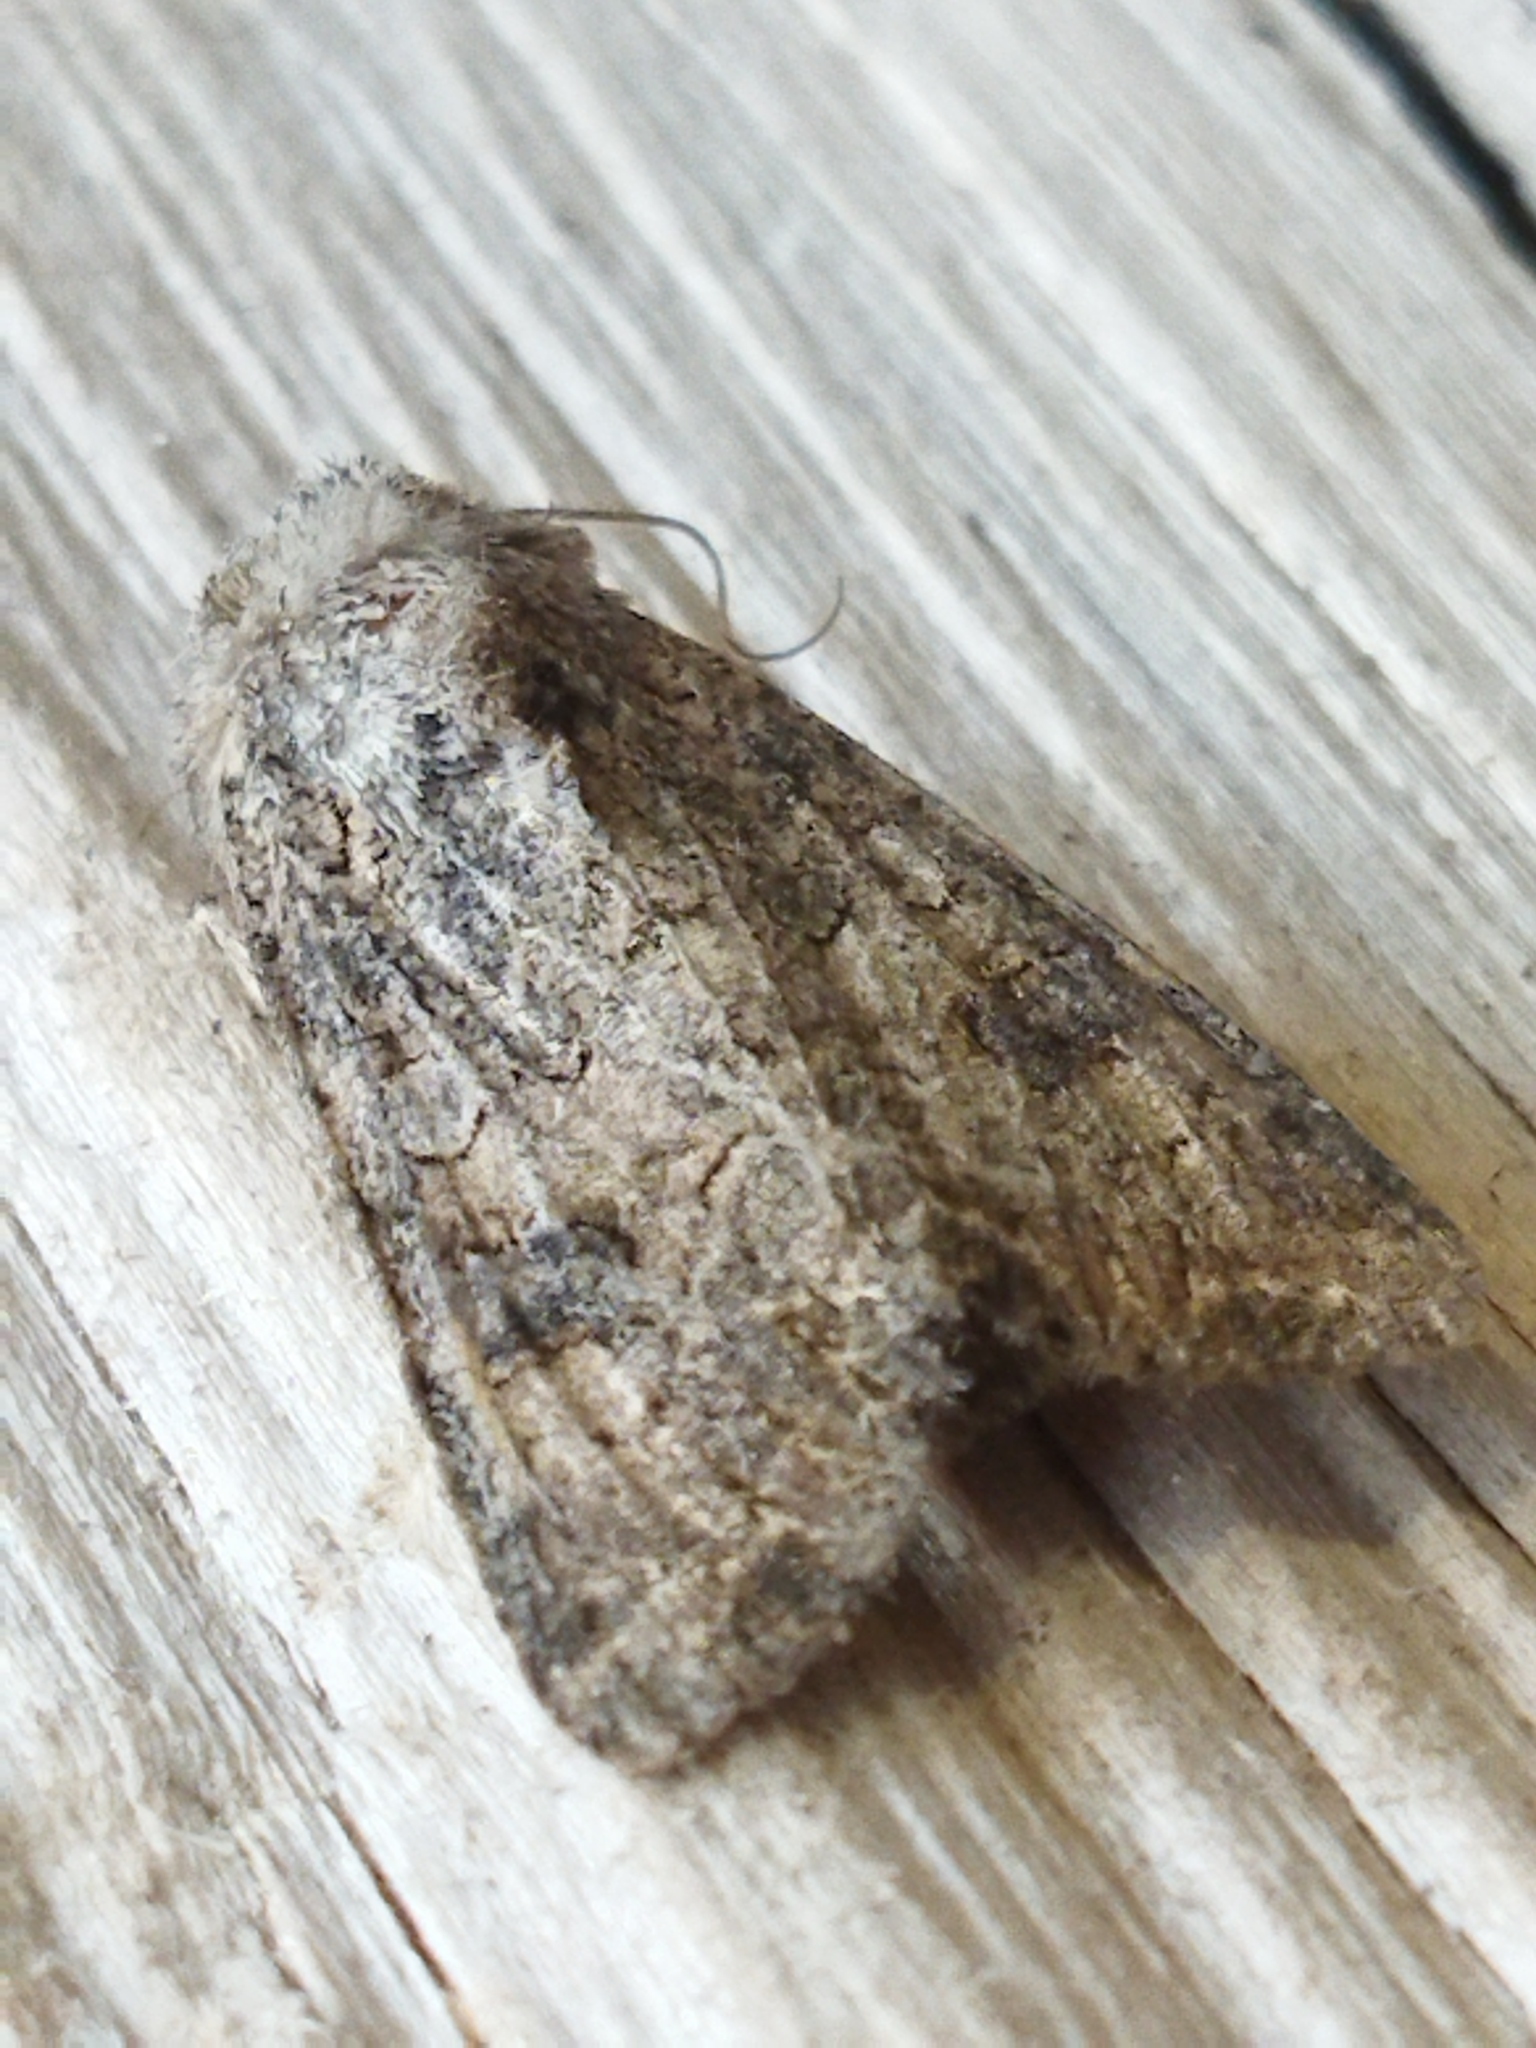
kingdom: Animalia
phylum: Arthropoda
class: Insecta
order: Lepidoptera
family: Noctuidae
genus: Anarta
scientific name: Anarta trifolii
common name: Clover cutworm moth
